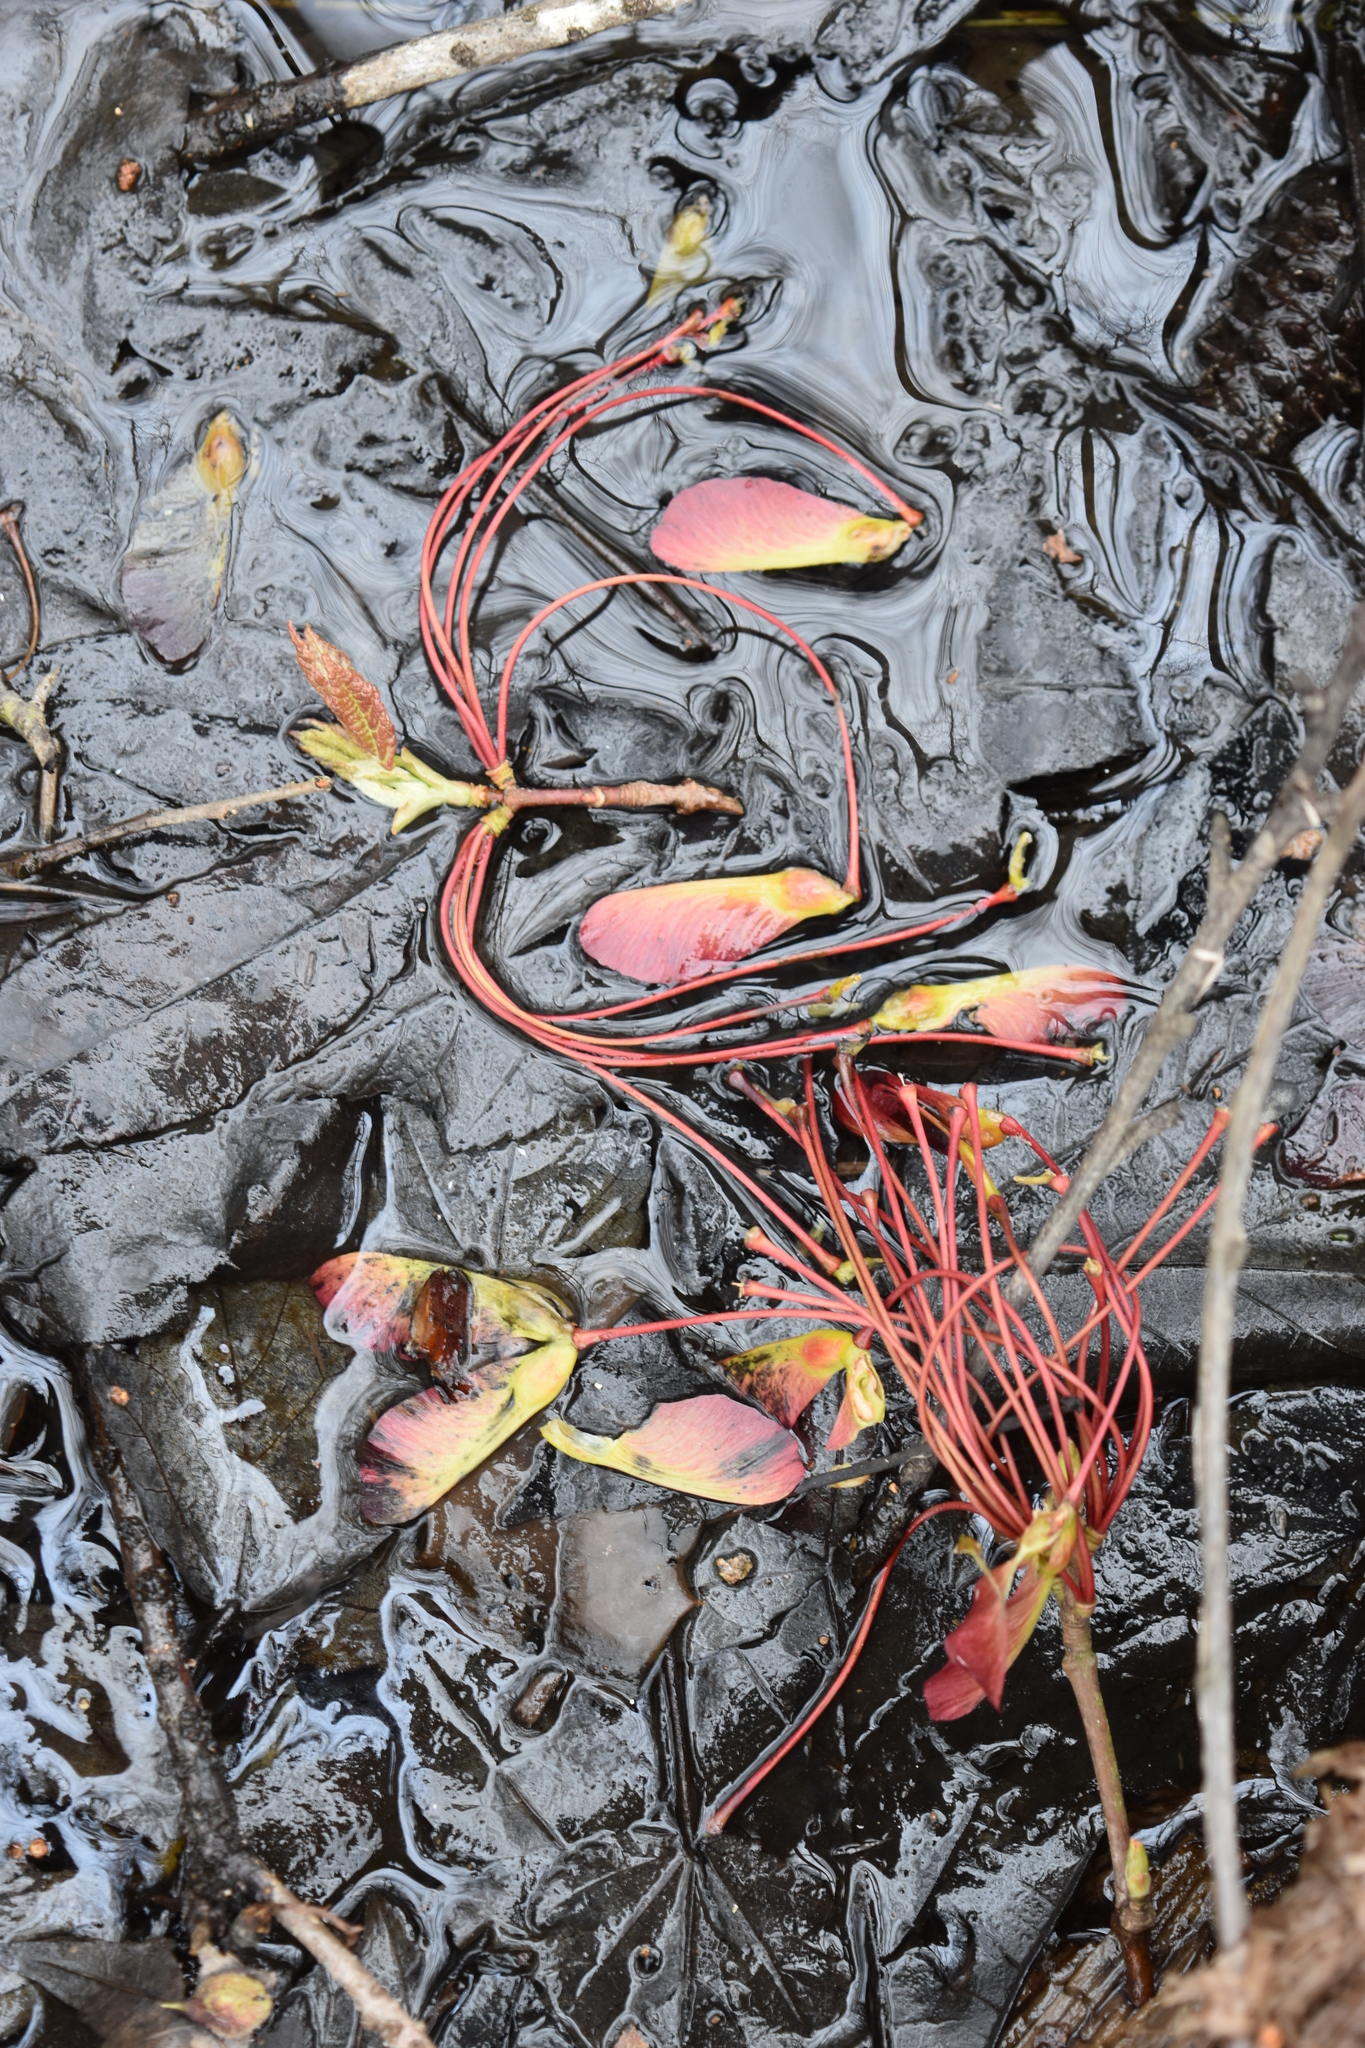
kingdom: Plantae
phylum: Tracheophyta
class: Magnoliopsida
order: Sapindales
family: Sapindaceae
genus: Acer
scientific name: Acer rubrum
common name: Red maple
